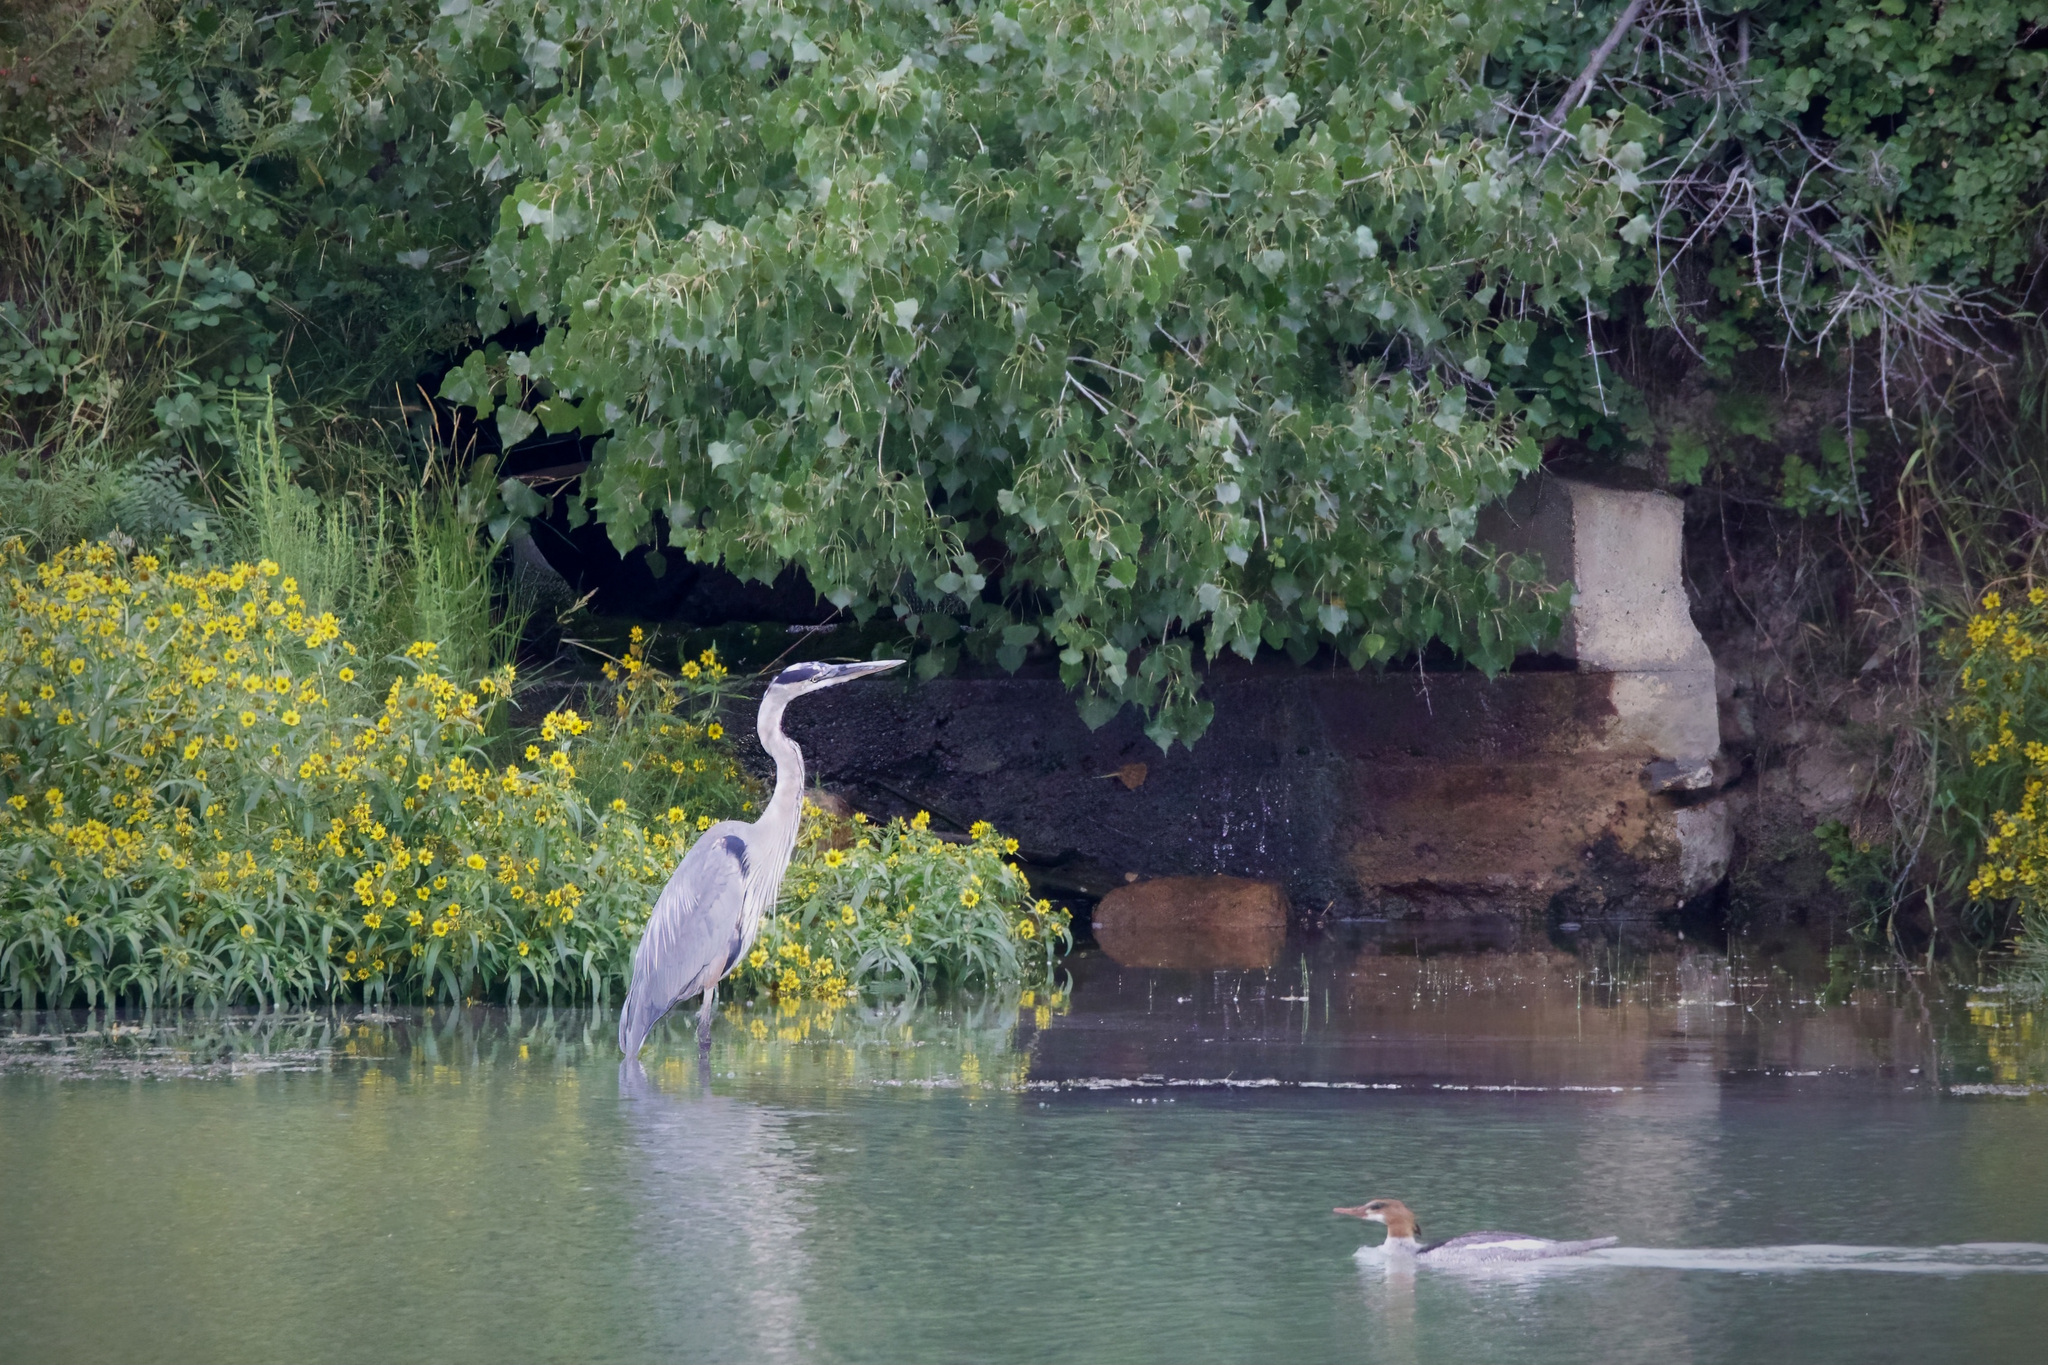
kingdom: Animalia
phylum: Chordata
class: Aves
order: Anseriformes
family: Anatidae
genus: Mergus
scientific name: Mergus merganser
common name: Common merganser
